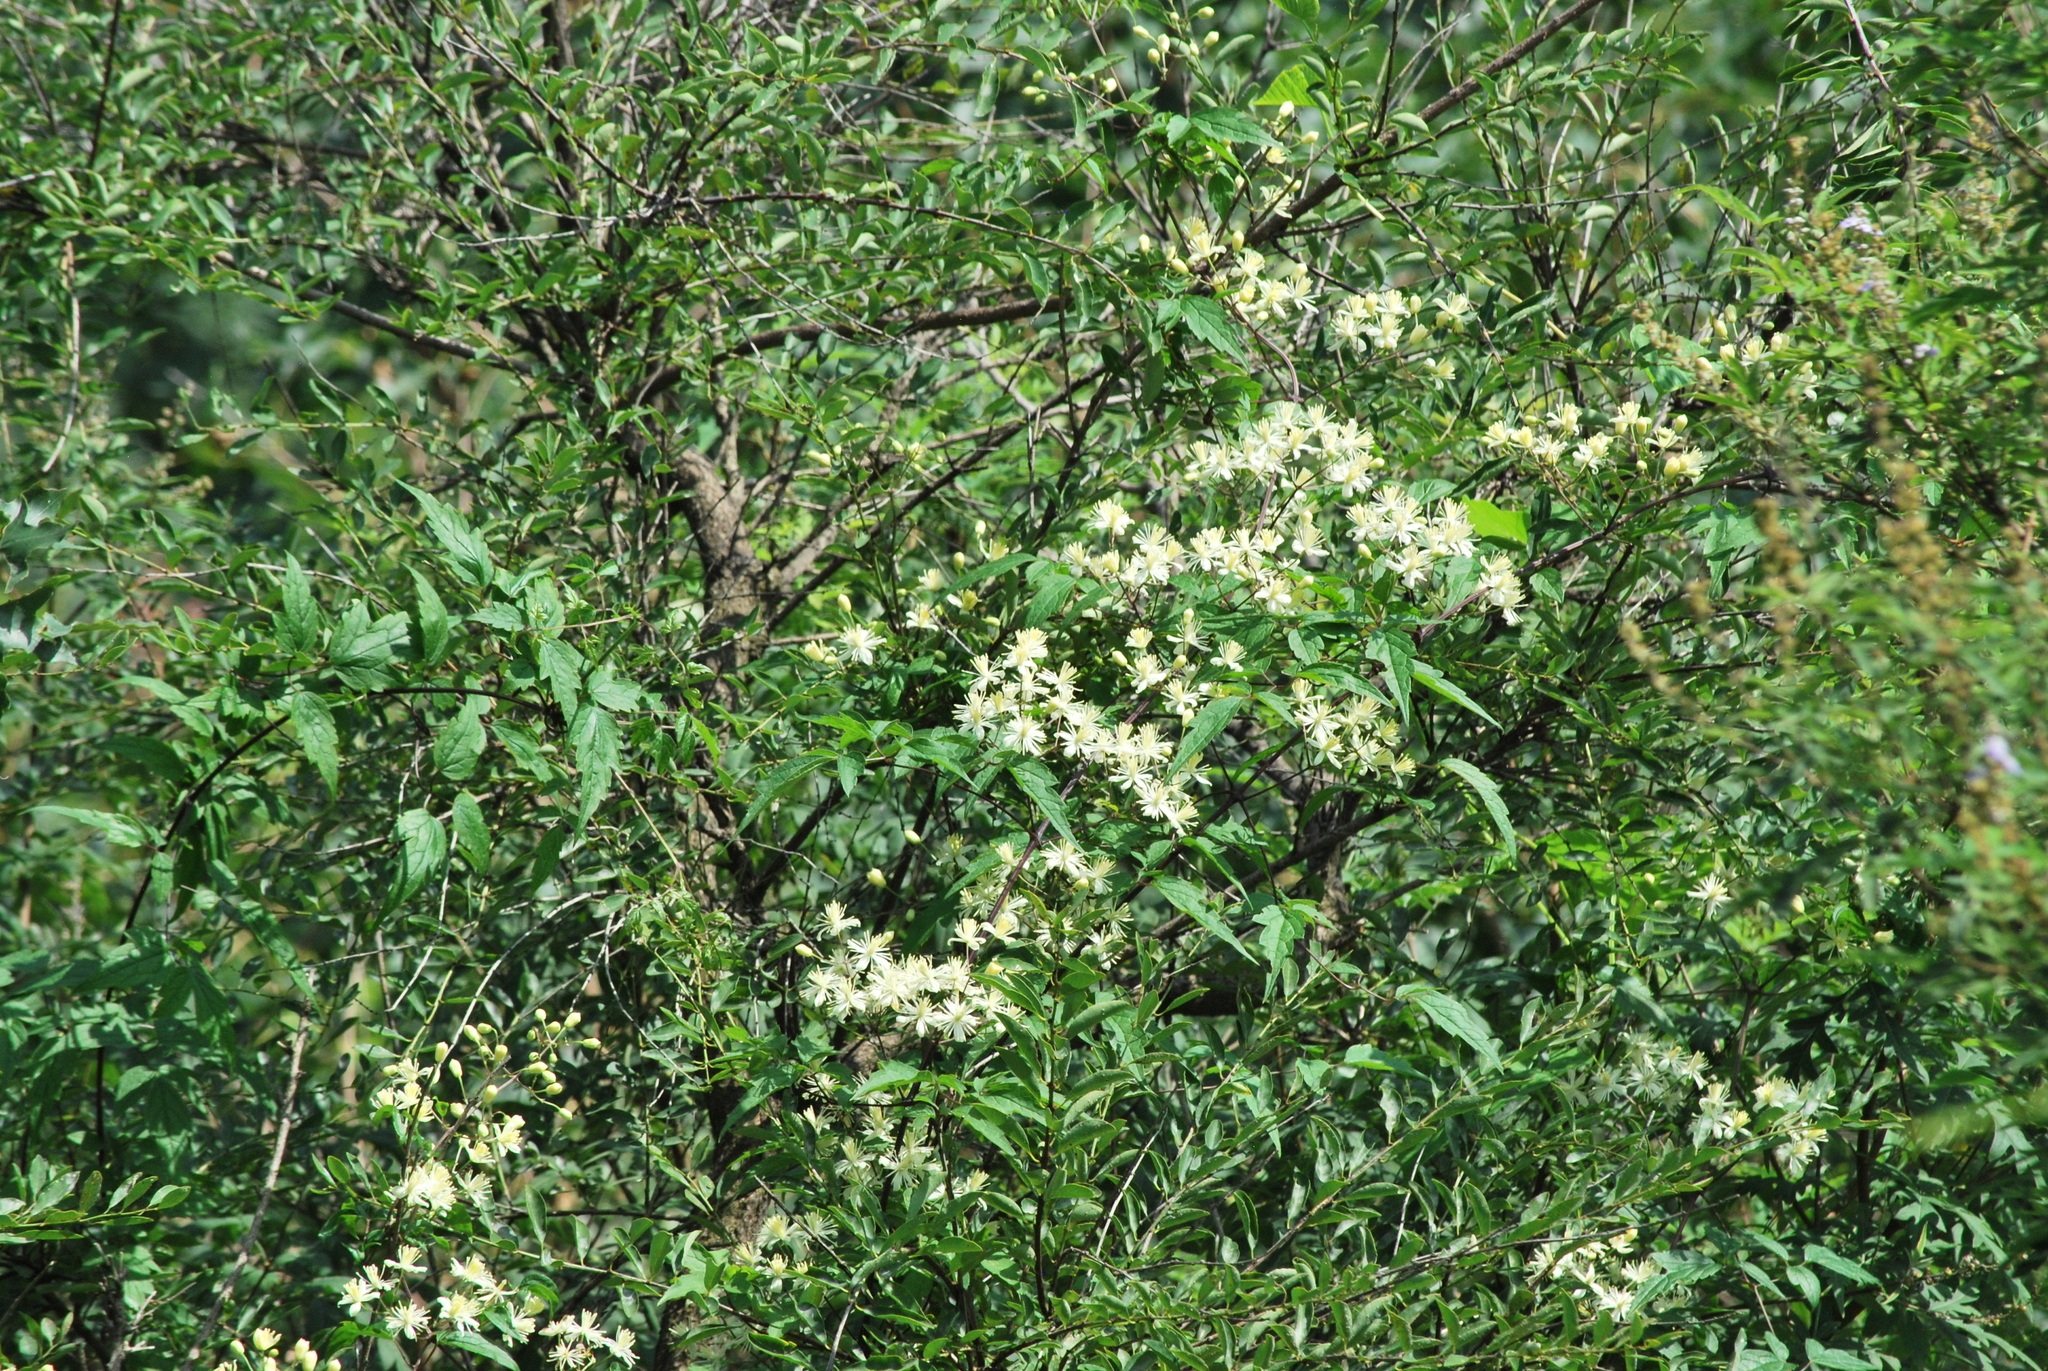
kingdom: Plantae
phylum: Tracheophyta
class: Magnoliopsida
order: Ranunculales
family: Ranunculaceae
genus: Clematis
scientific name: Clematis brevicaudata
